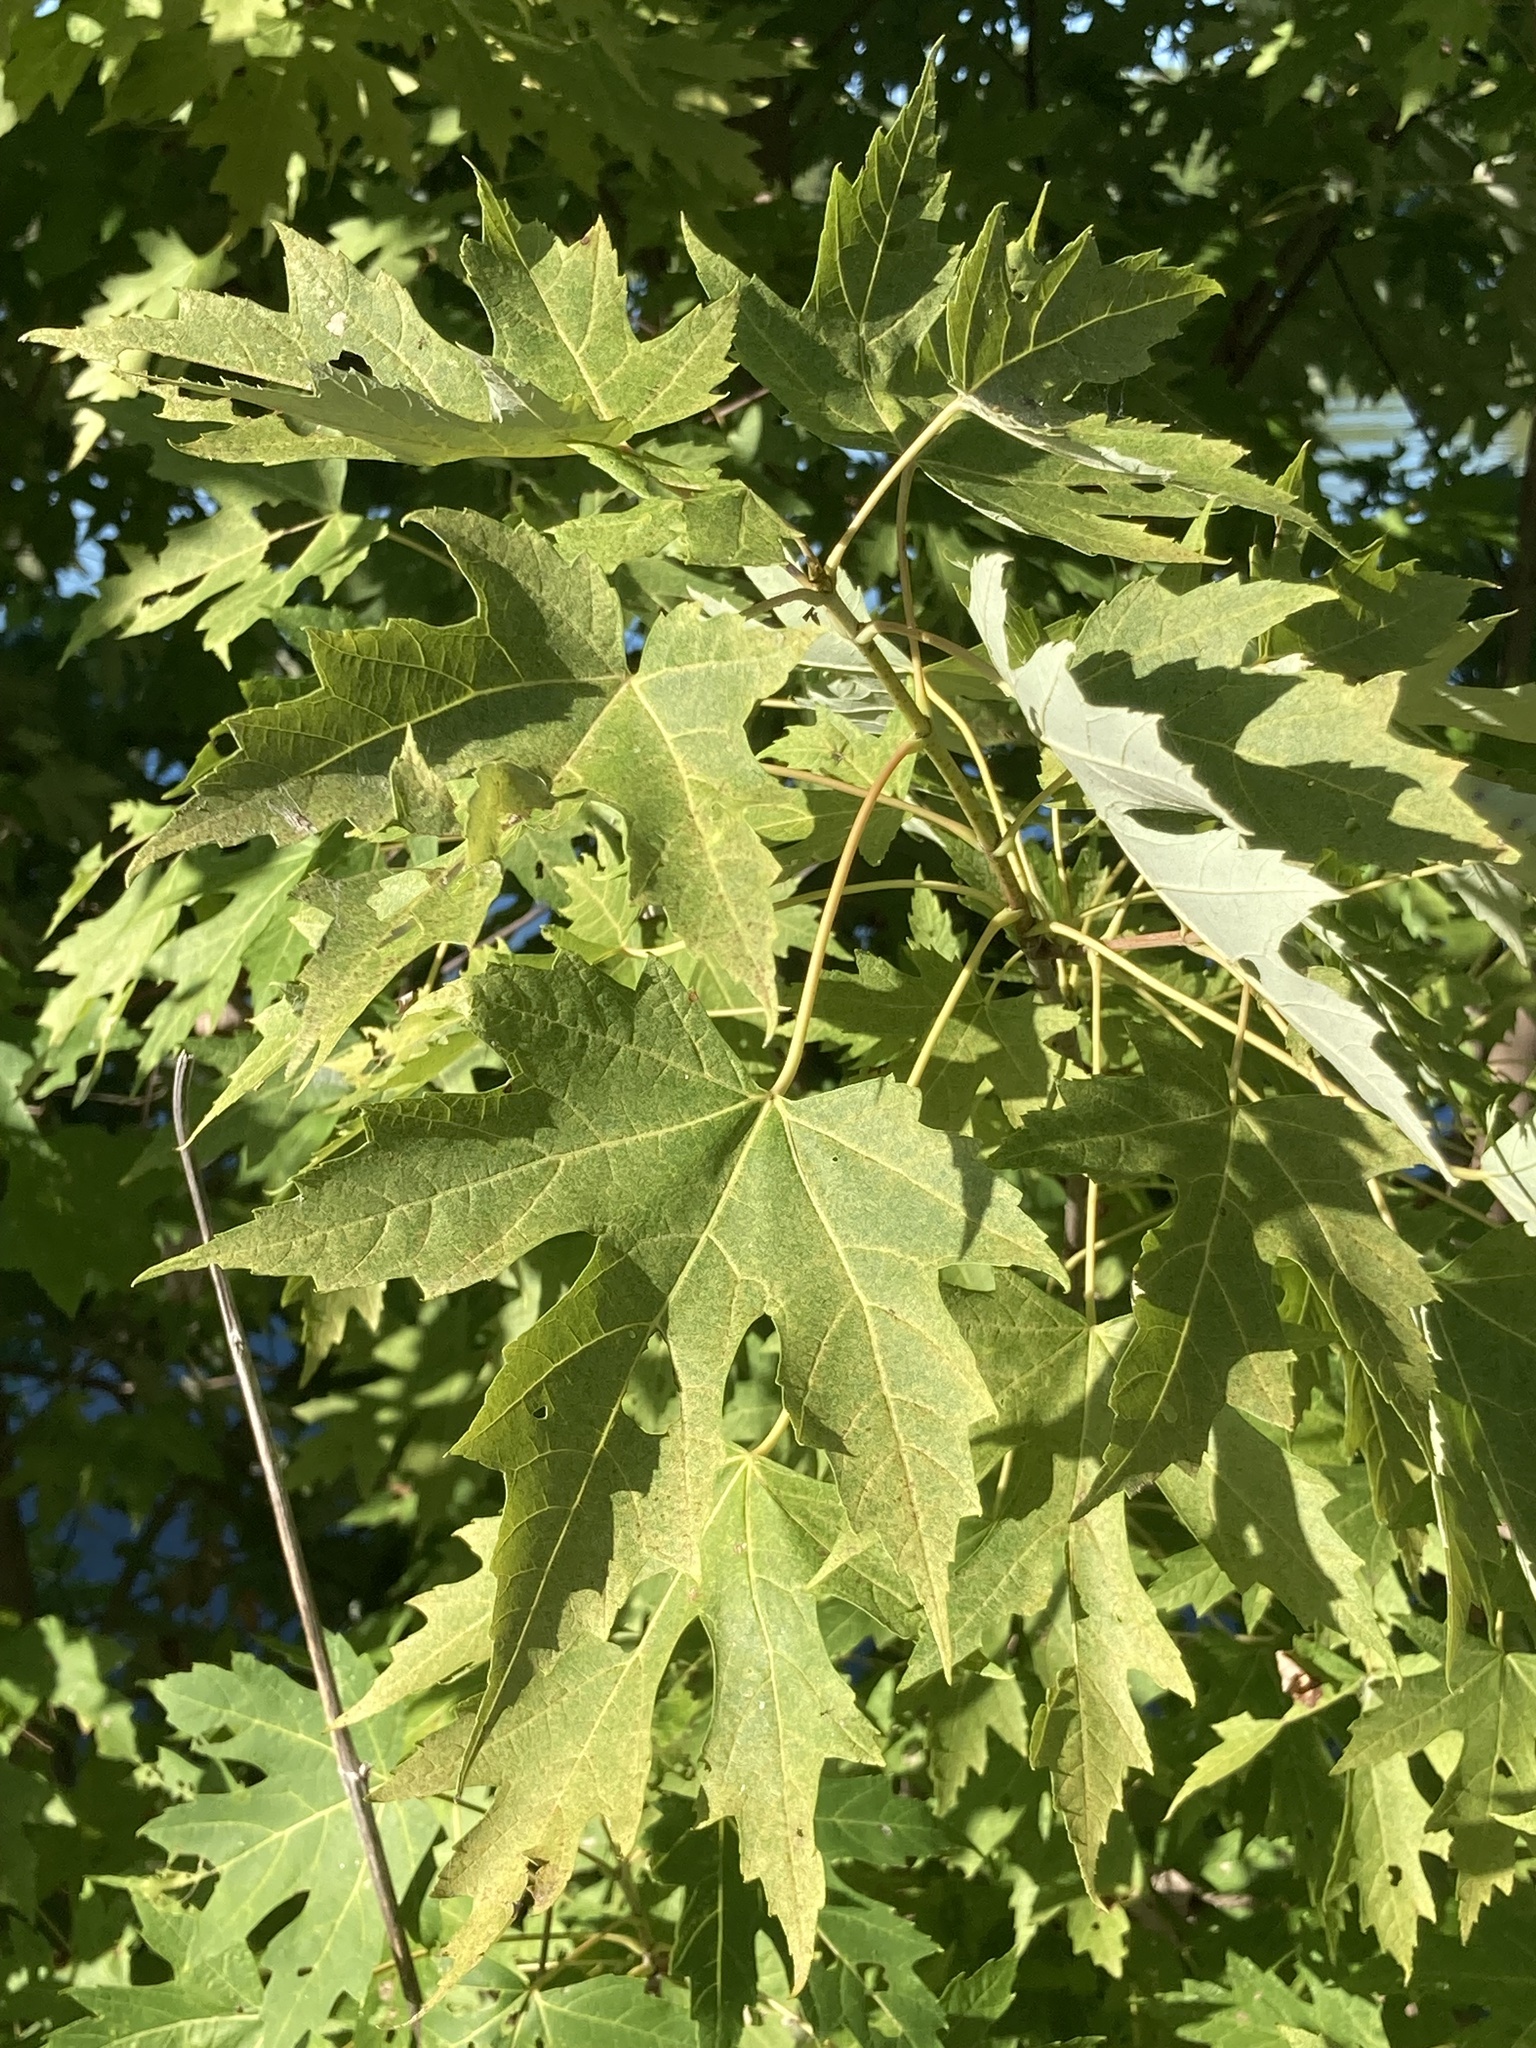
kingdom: Plantae
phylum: Tracheophyta
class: Magnoliopsida
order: Sapindales
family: Sapindaceae
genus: Acer
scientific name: Acer saccharinum
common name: Silver maple
